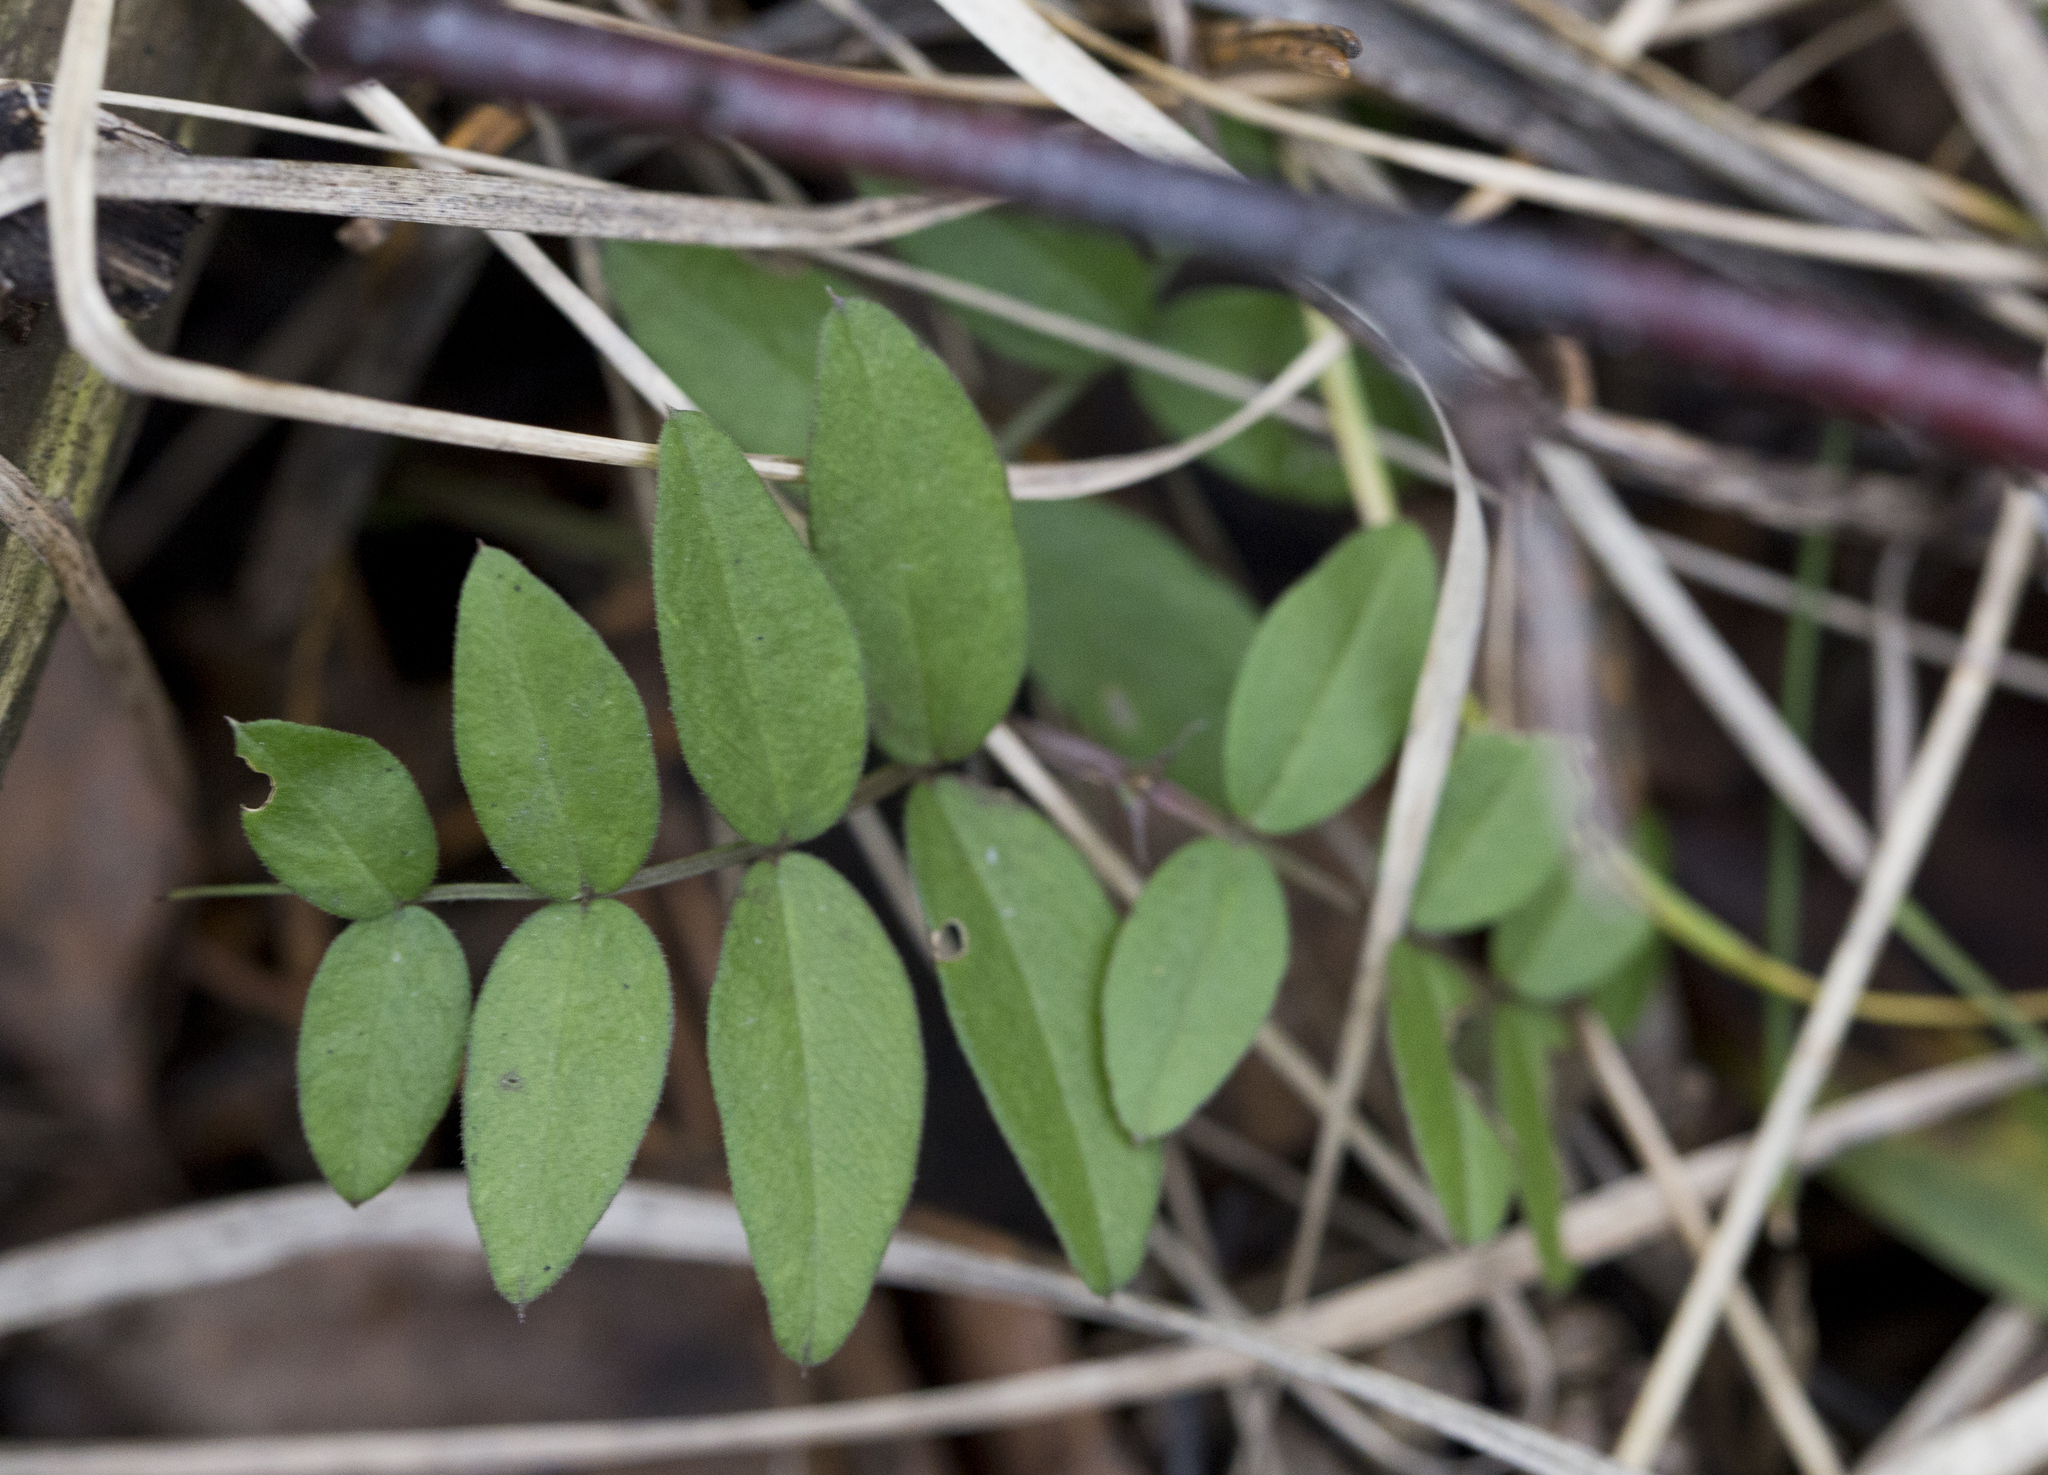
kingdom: Plantae
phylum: Tracheophyta
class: Magnoliopsida
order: Fabales
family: Fabaceae
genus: Vicia
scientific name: Vicia sepium
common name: Bush vetch
